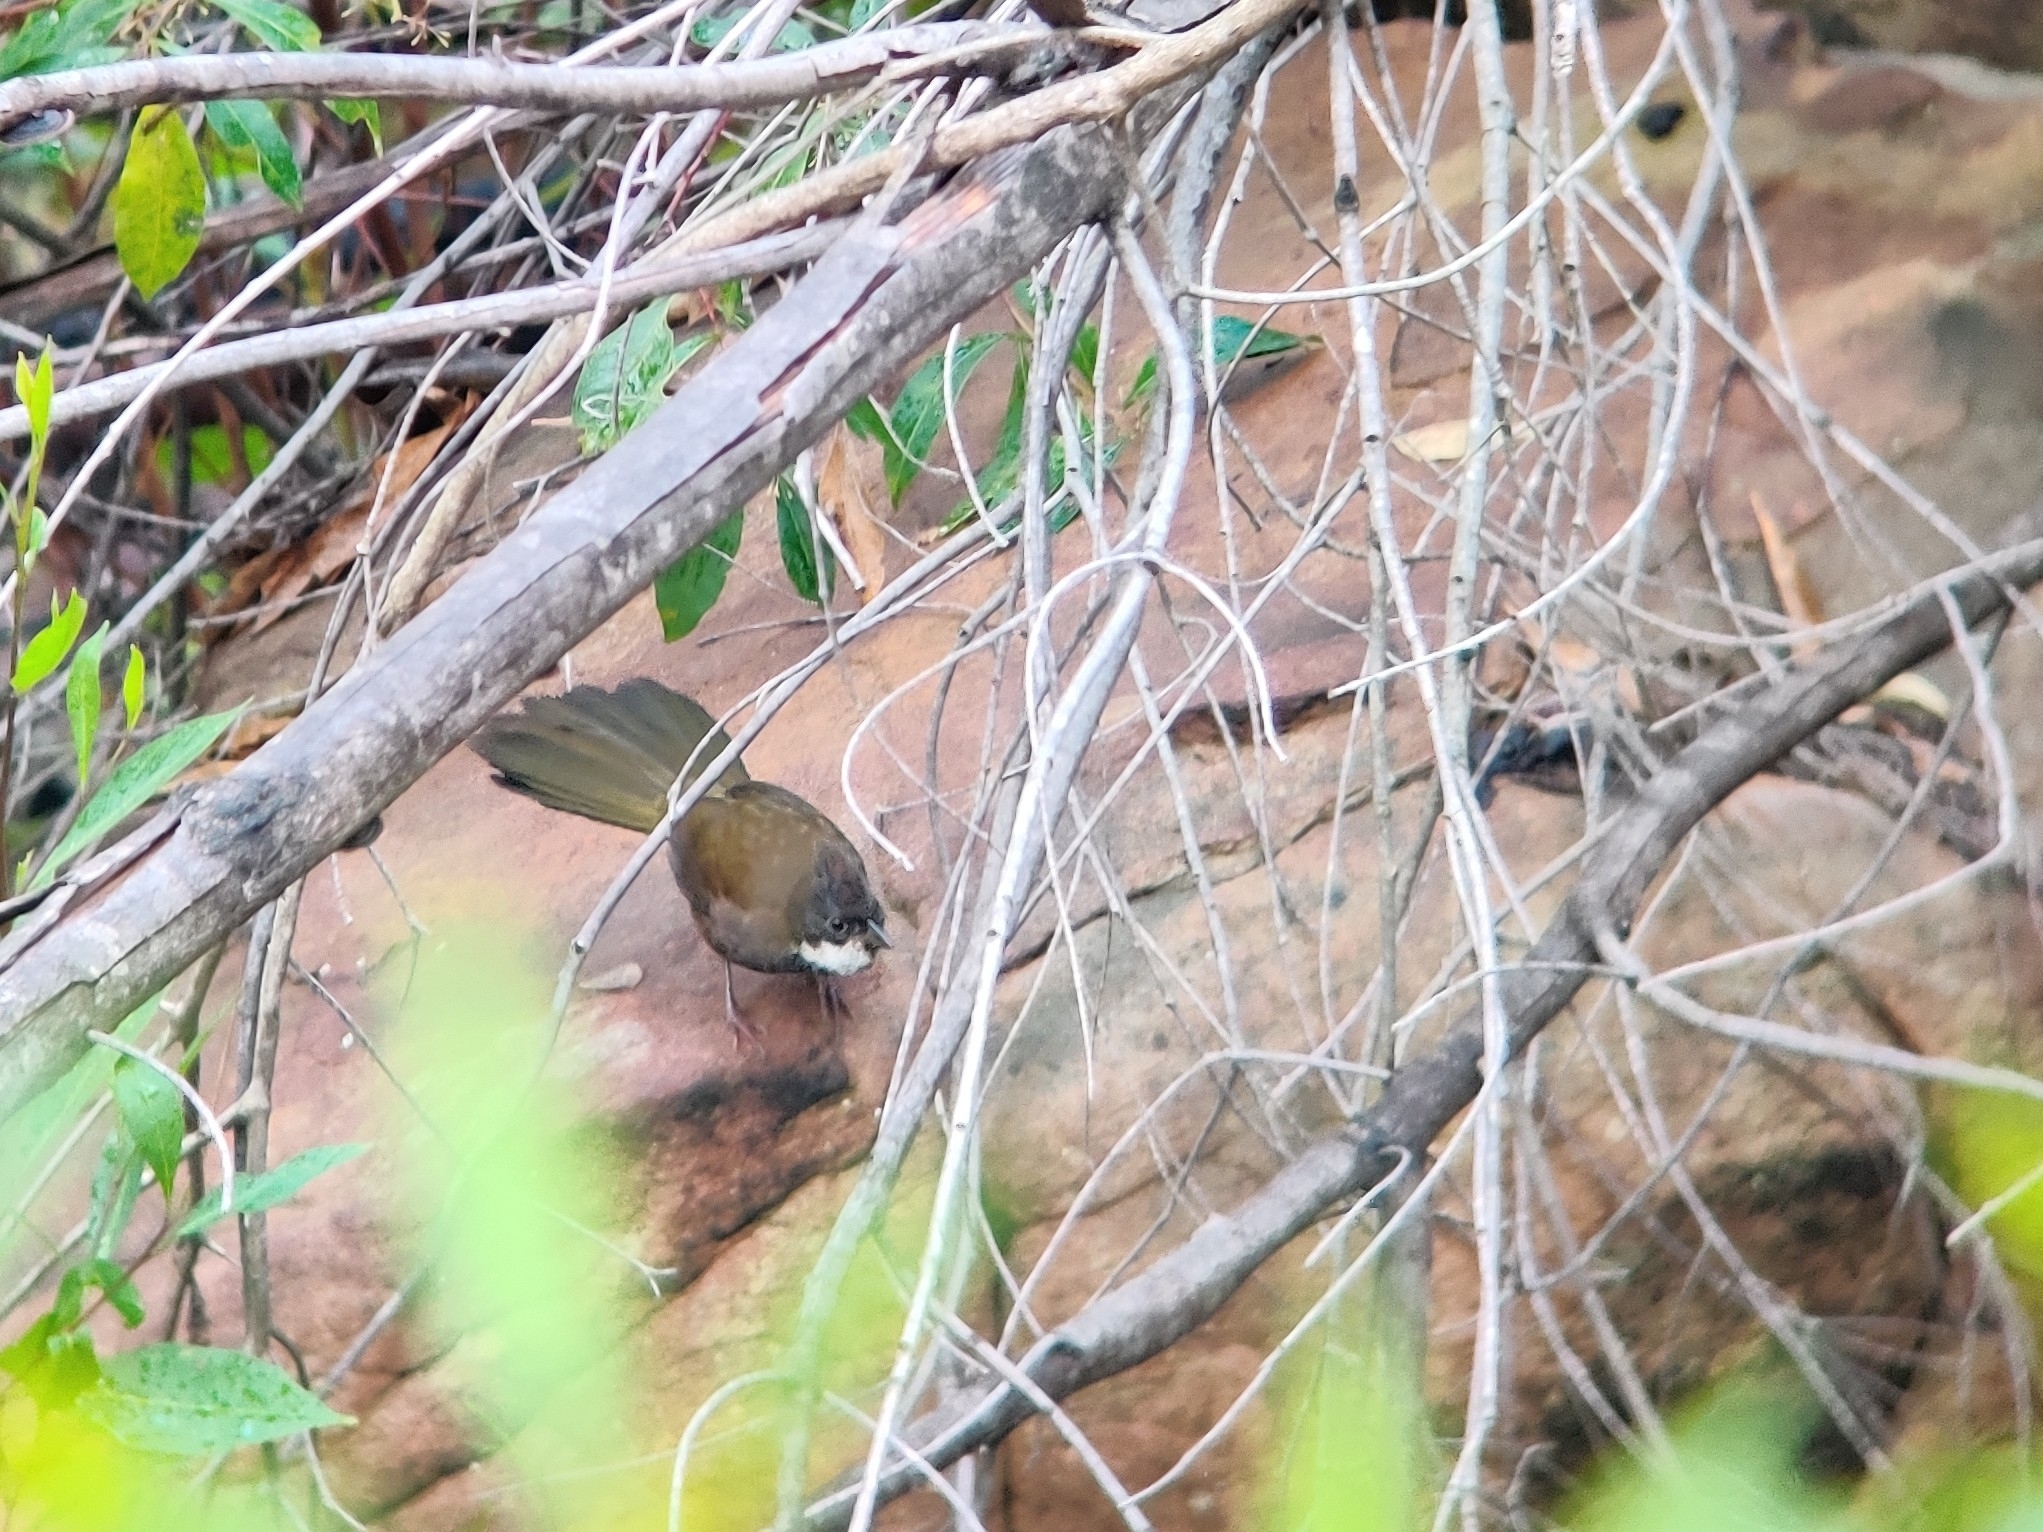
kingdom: Animalia
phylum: Chordata
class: Aves
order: Passeriformes
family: Psophodidae
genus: Psophodes
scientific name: Psophodes olivaceus
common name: Eastern whipbird
